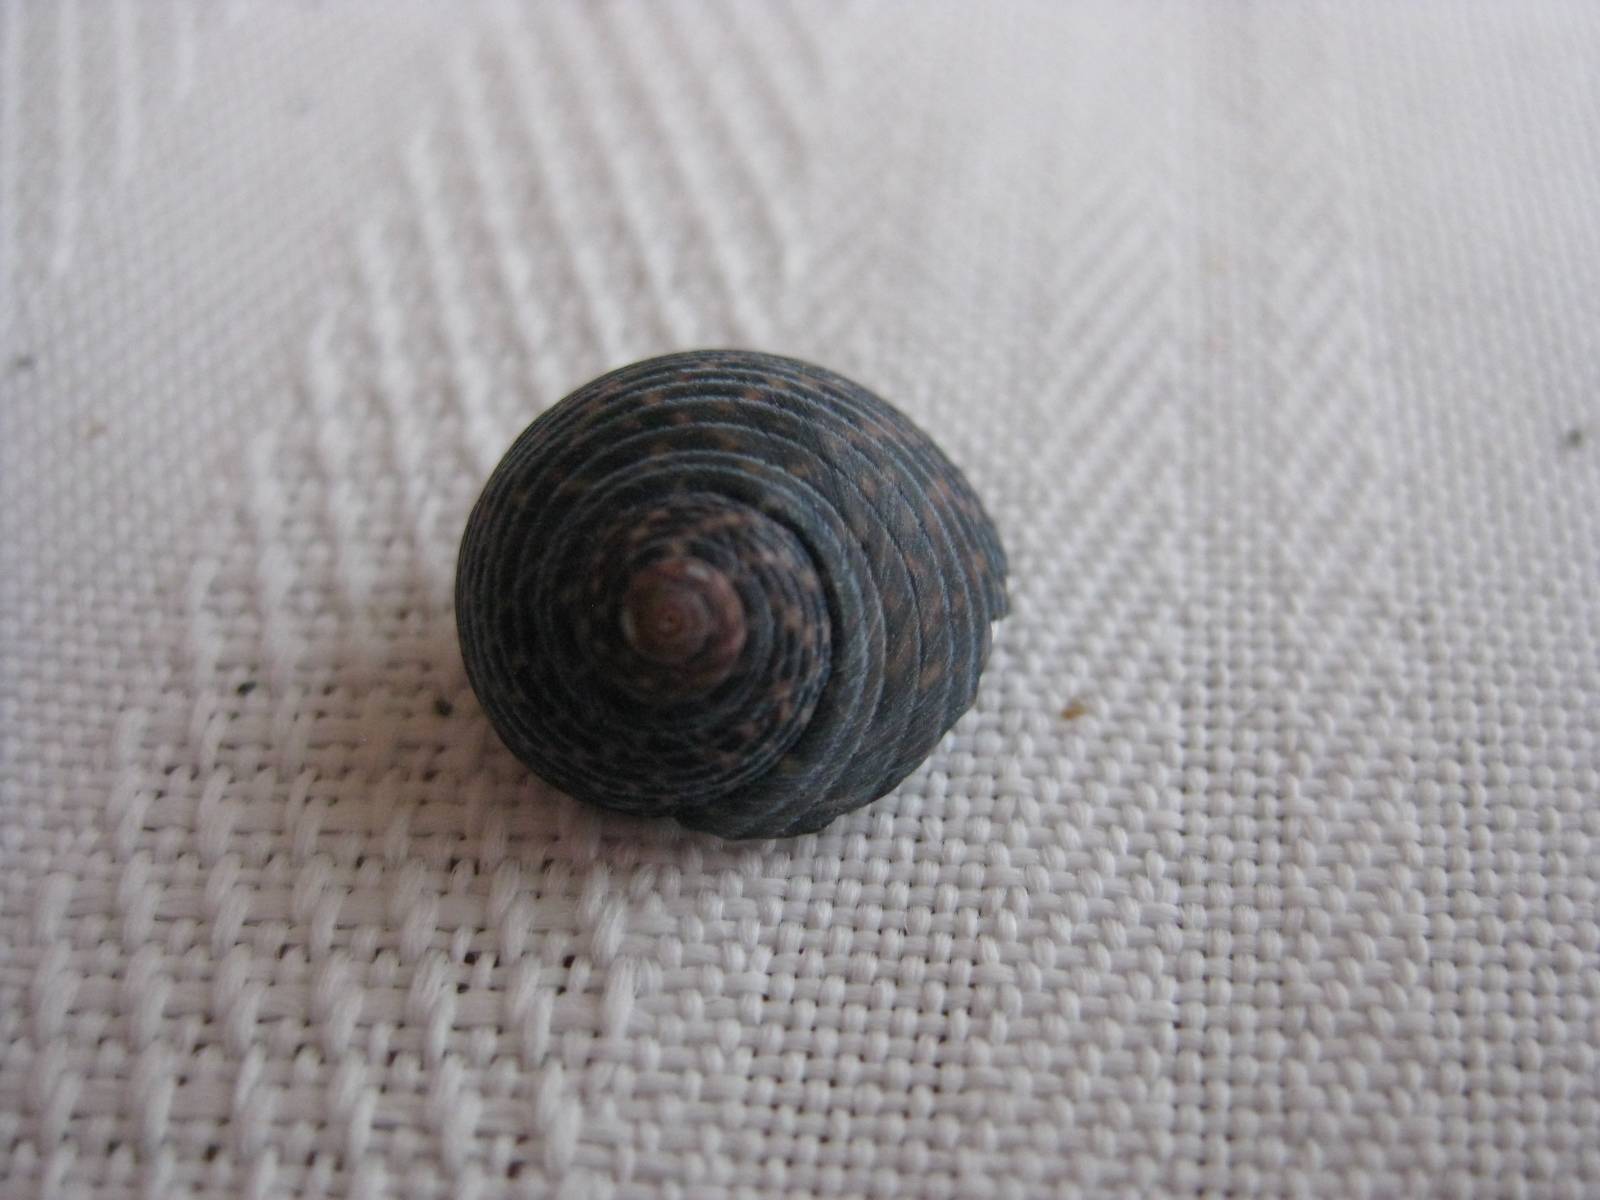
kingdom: Animalia
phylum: Mollusca
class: Gastropoda
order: Trochida
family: Trochidae
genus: Diloma
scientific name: Diloma zelandicum
